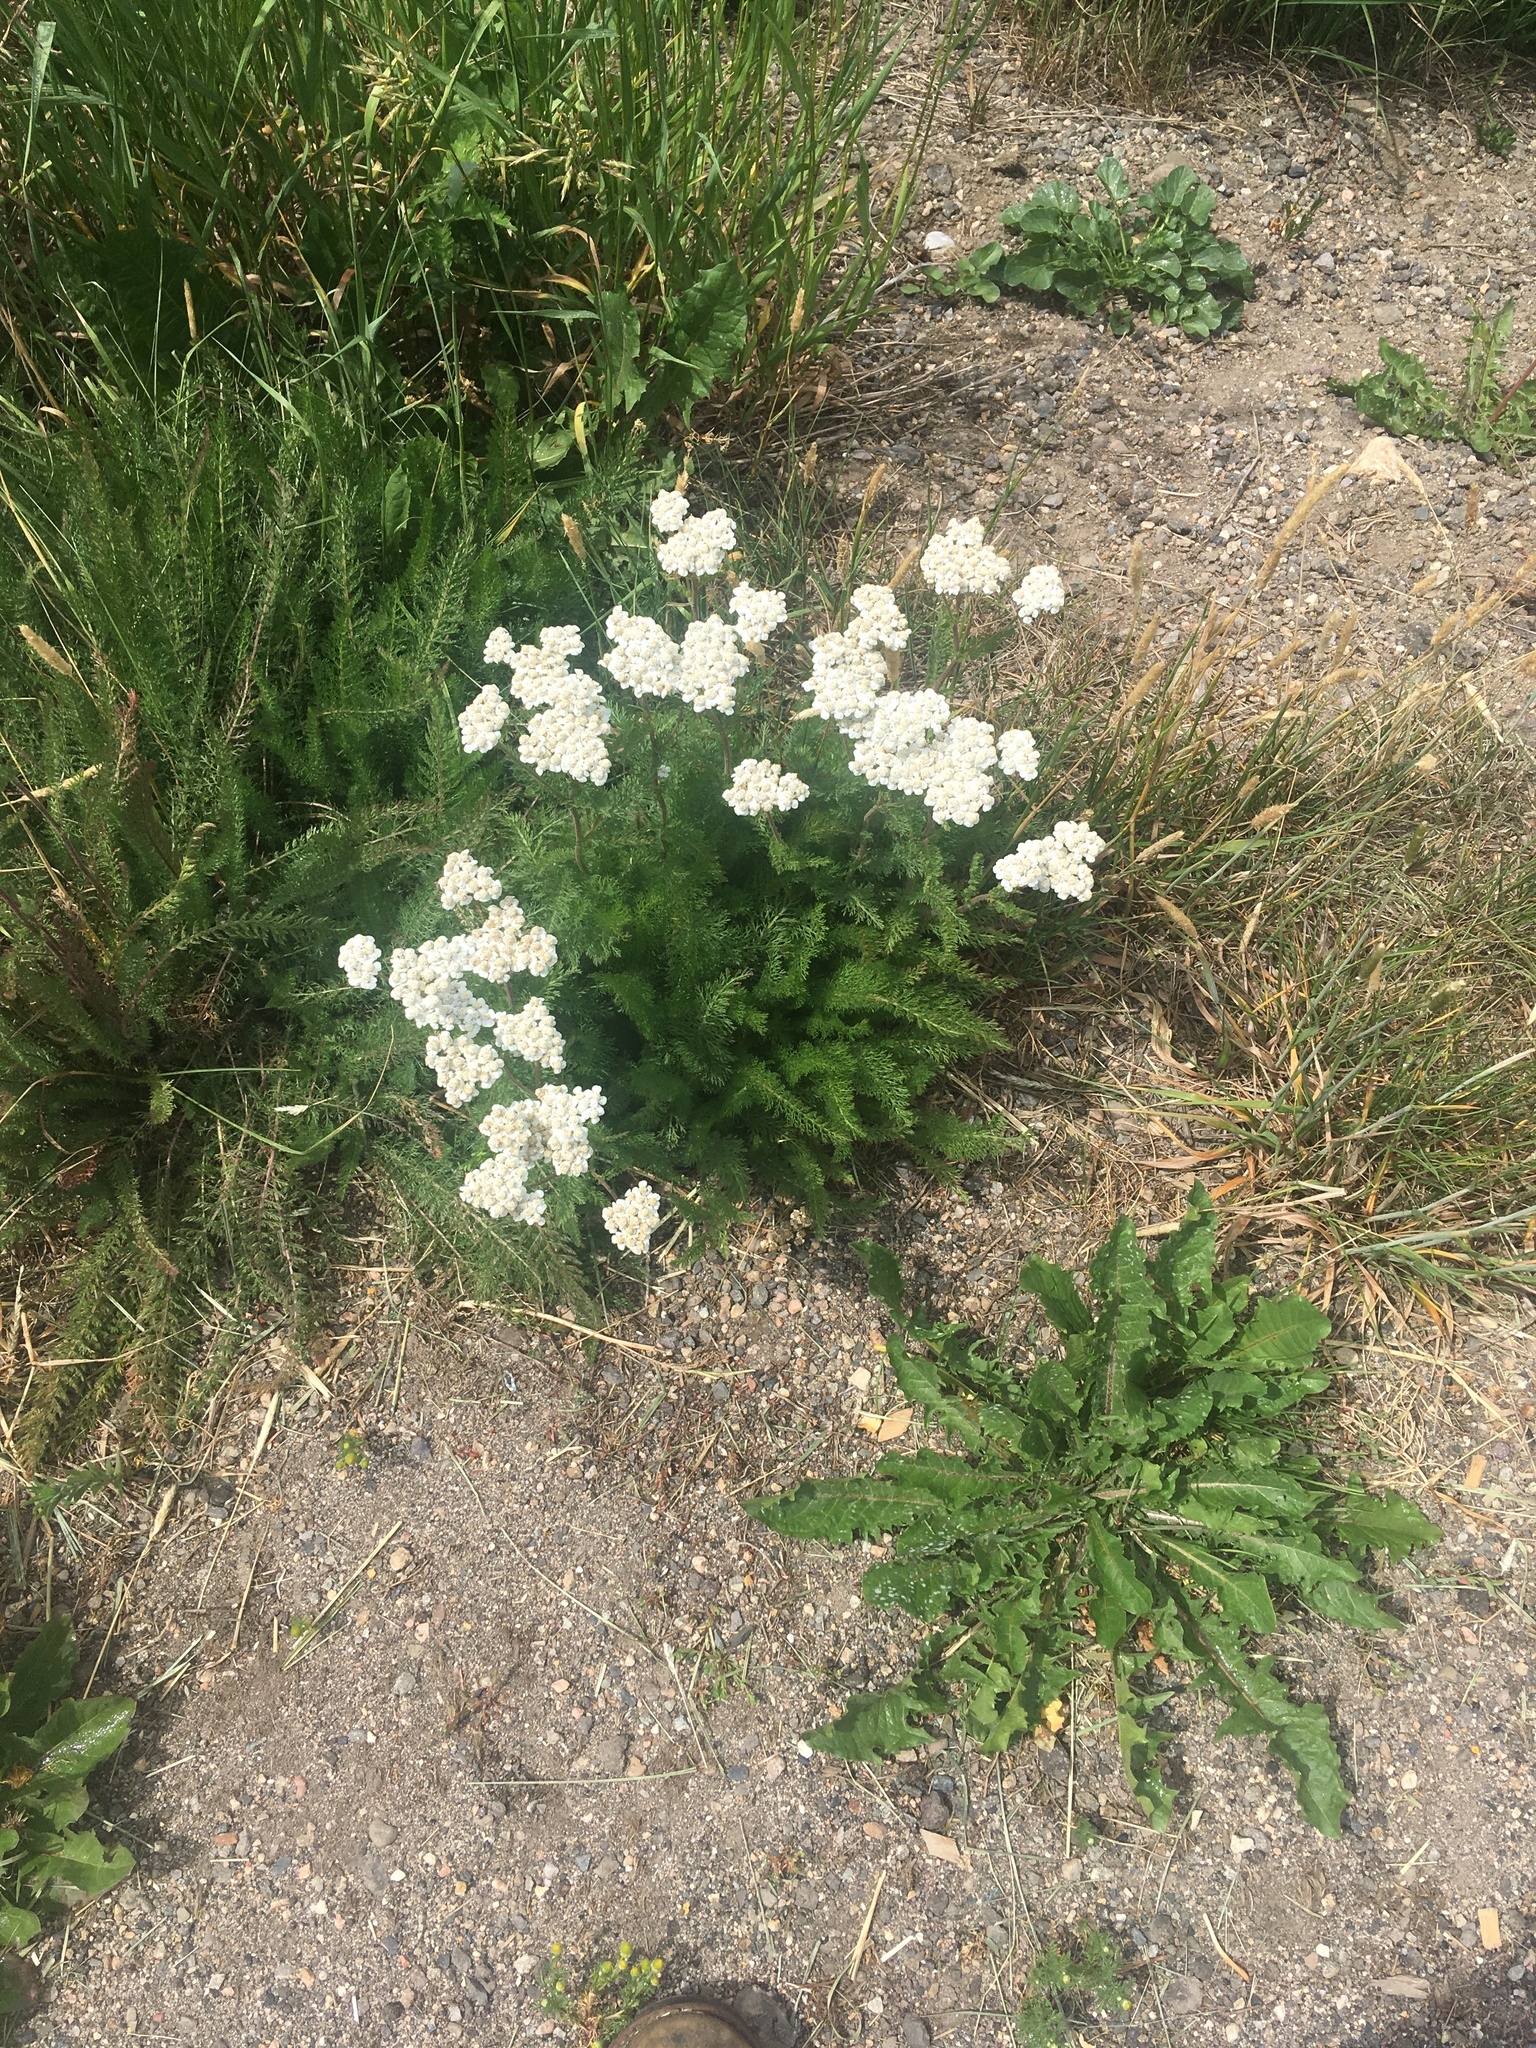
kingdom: Plantae
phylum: Tracheophyta
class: Magnoliopsida
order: Asterales
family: Asteraceae
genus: Achillea
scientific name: Achillea millefolium
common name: Yarrow
